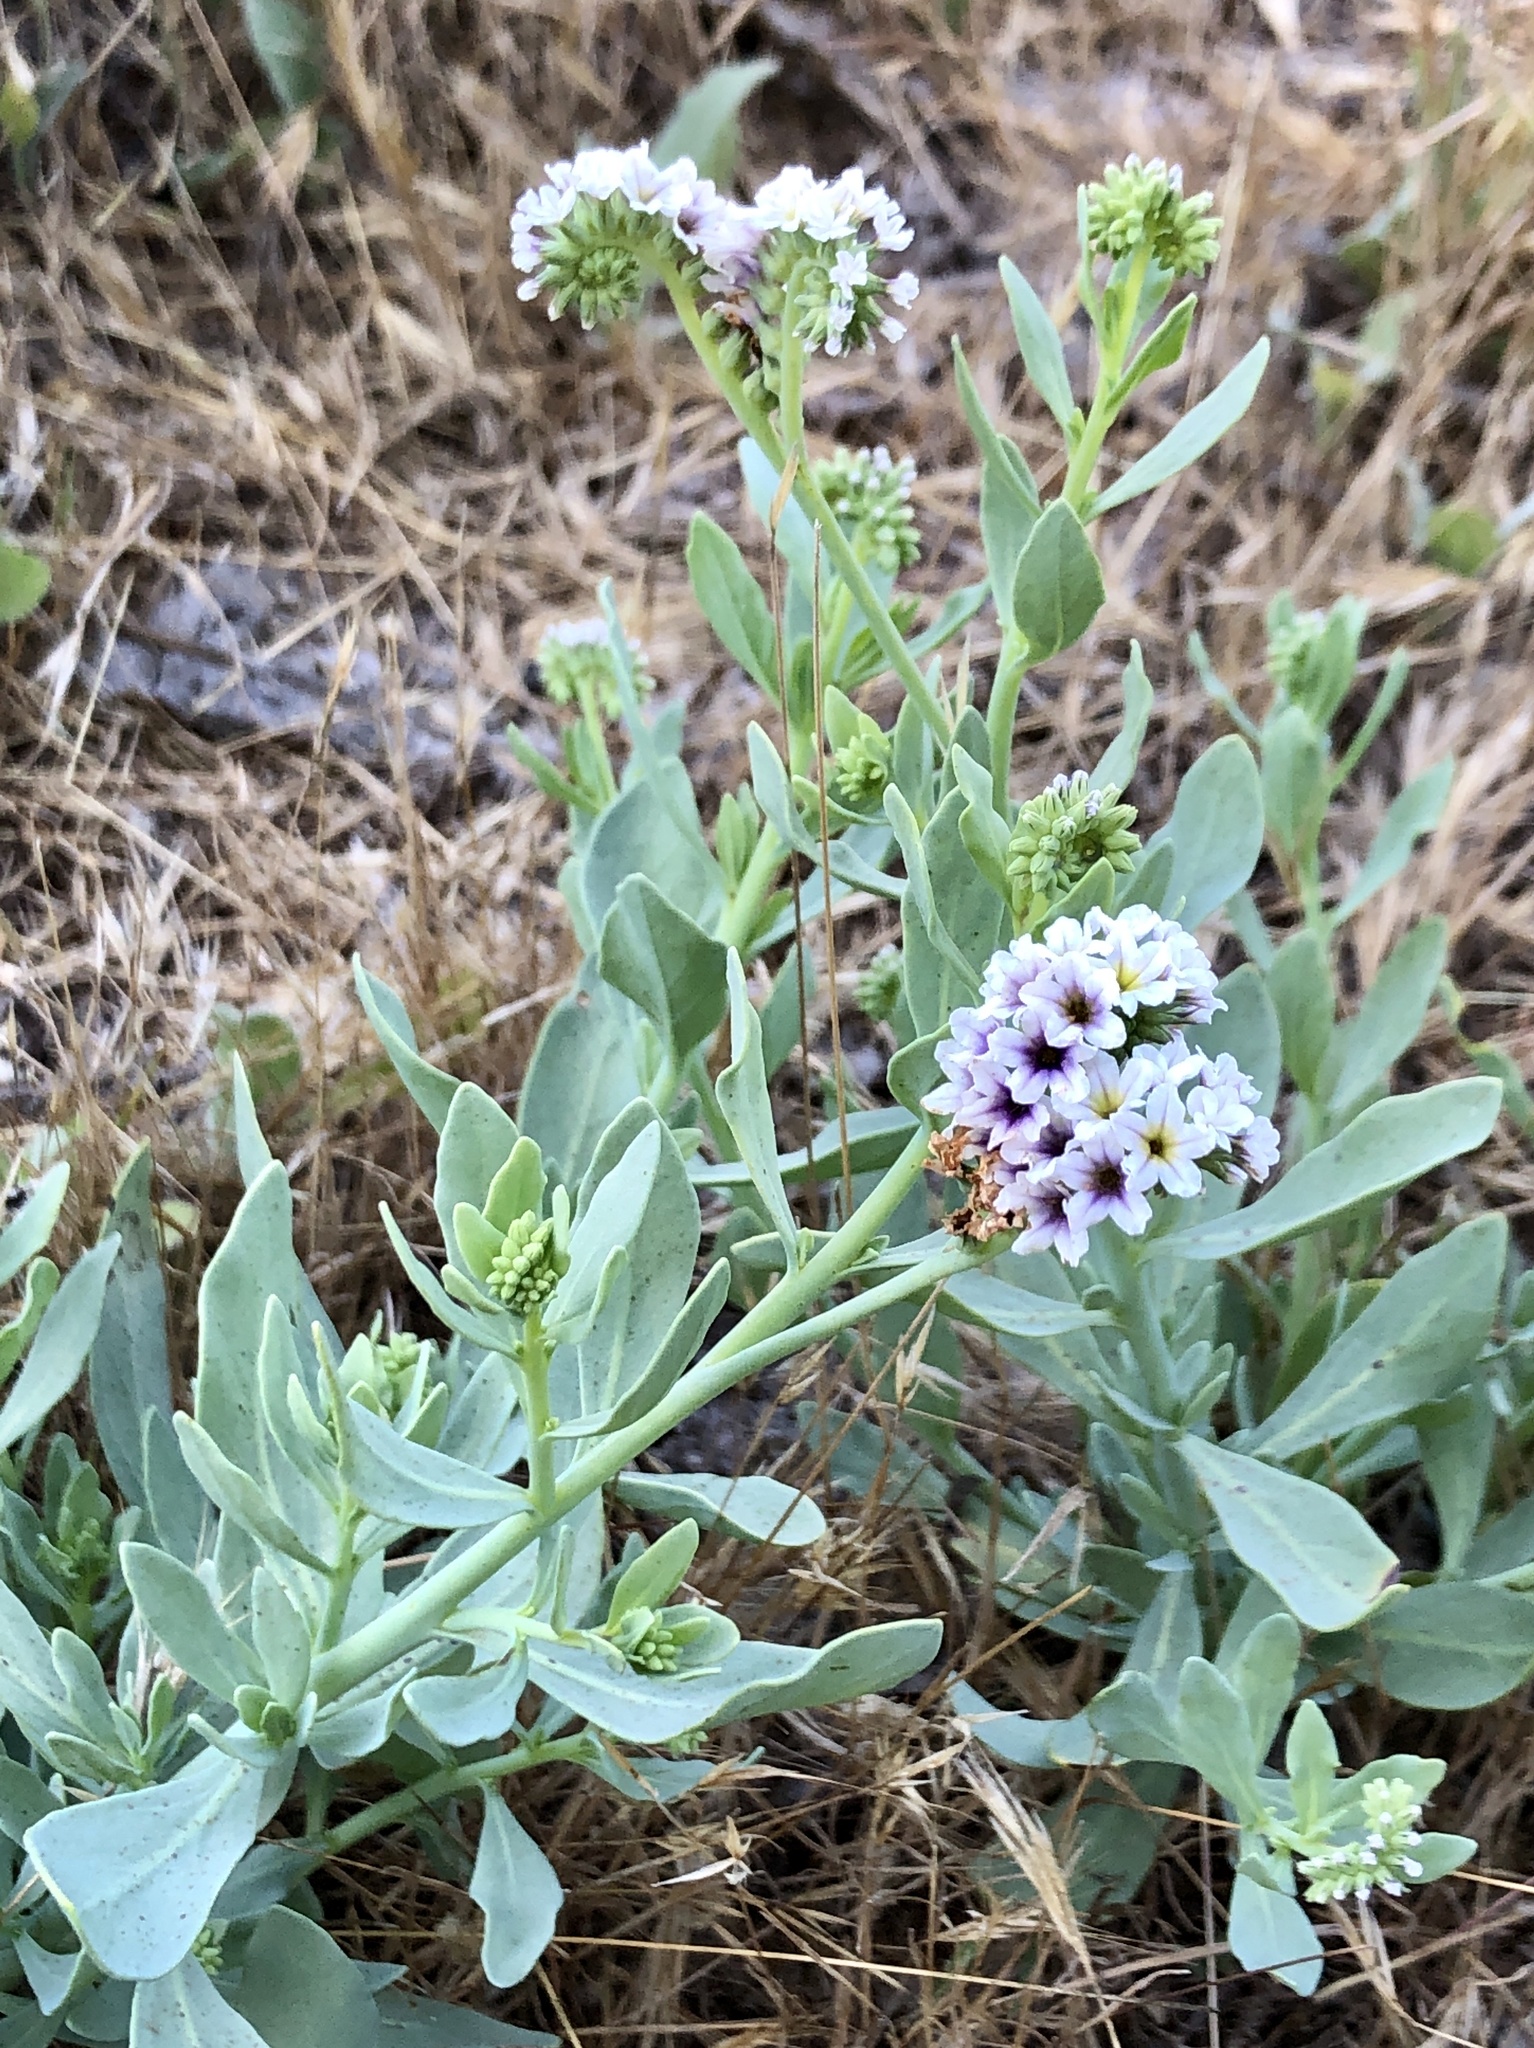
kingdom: Plantae
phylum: Tracheophyta
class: Magnoliopsida
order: Boraginales
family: Heliotropiaceae
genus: Heliotropium
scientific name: Heliotropium curassavicum
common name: Seaside heliotrope
